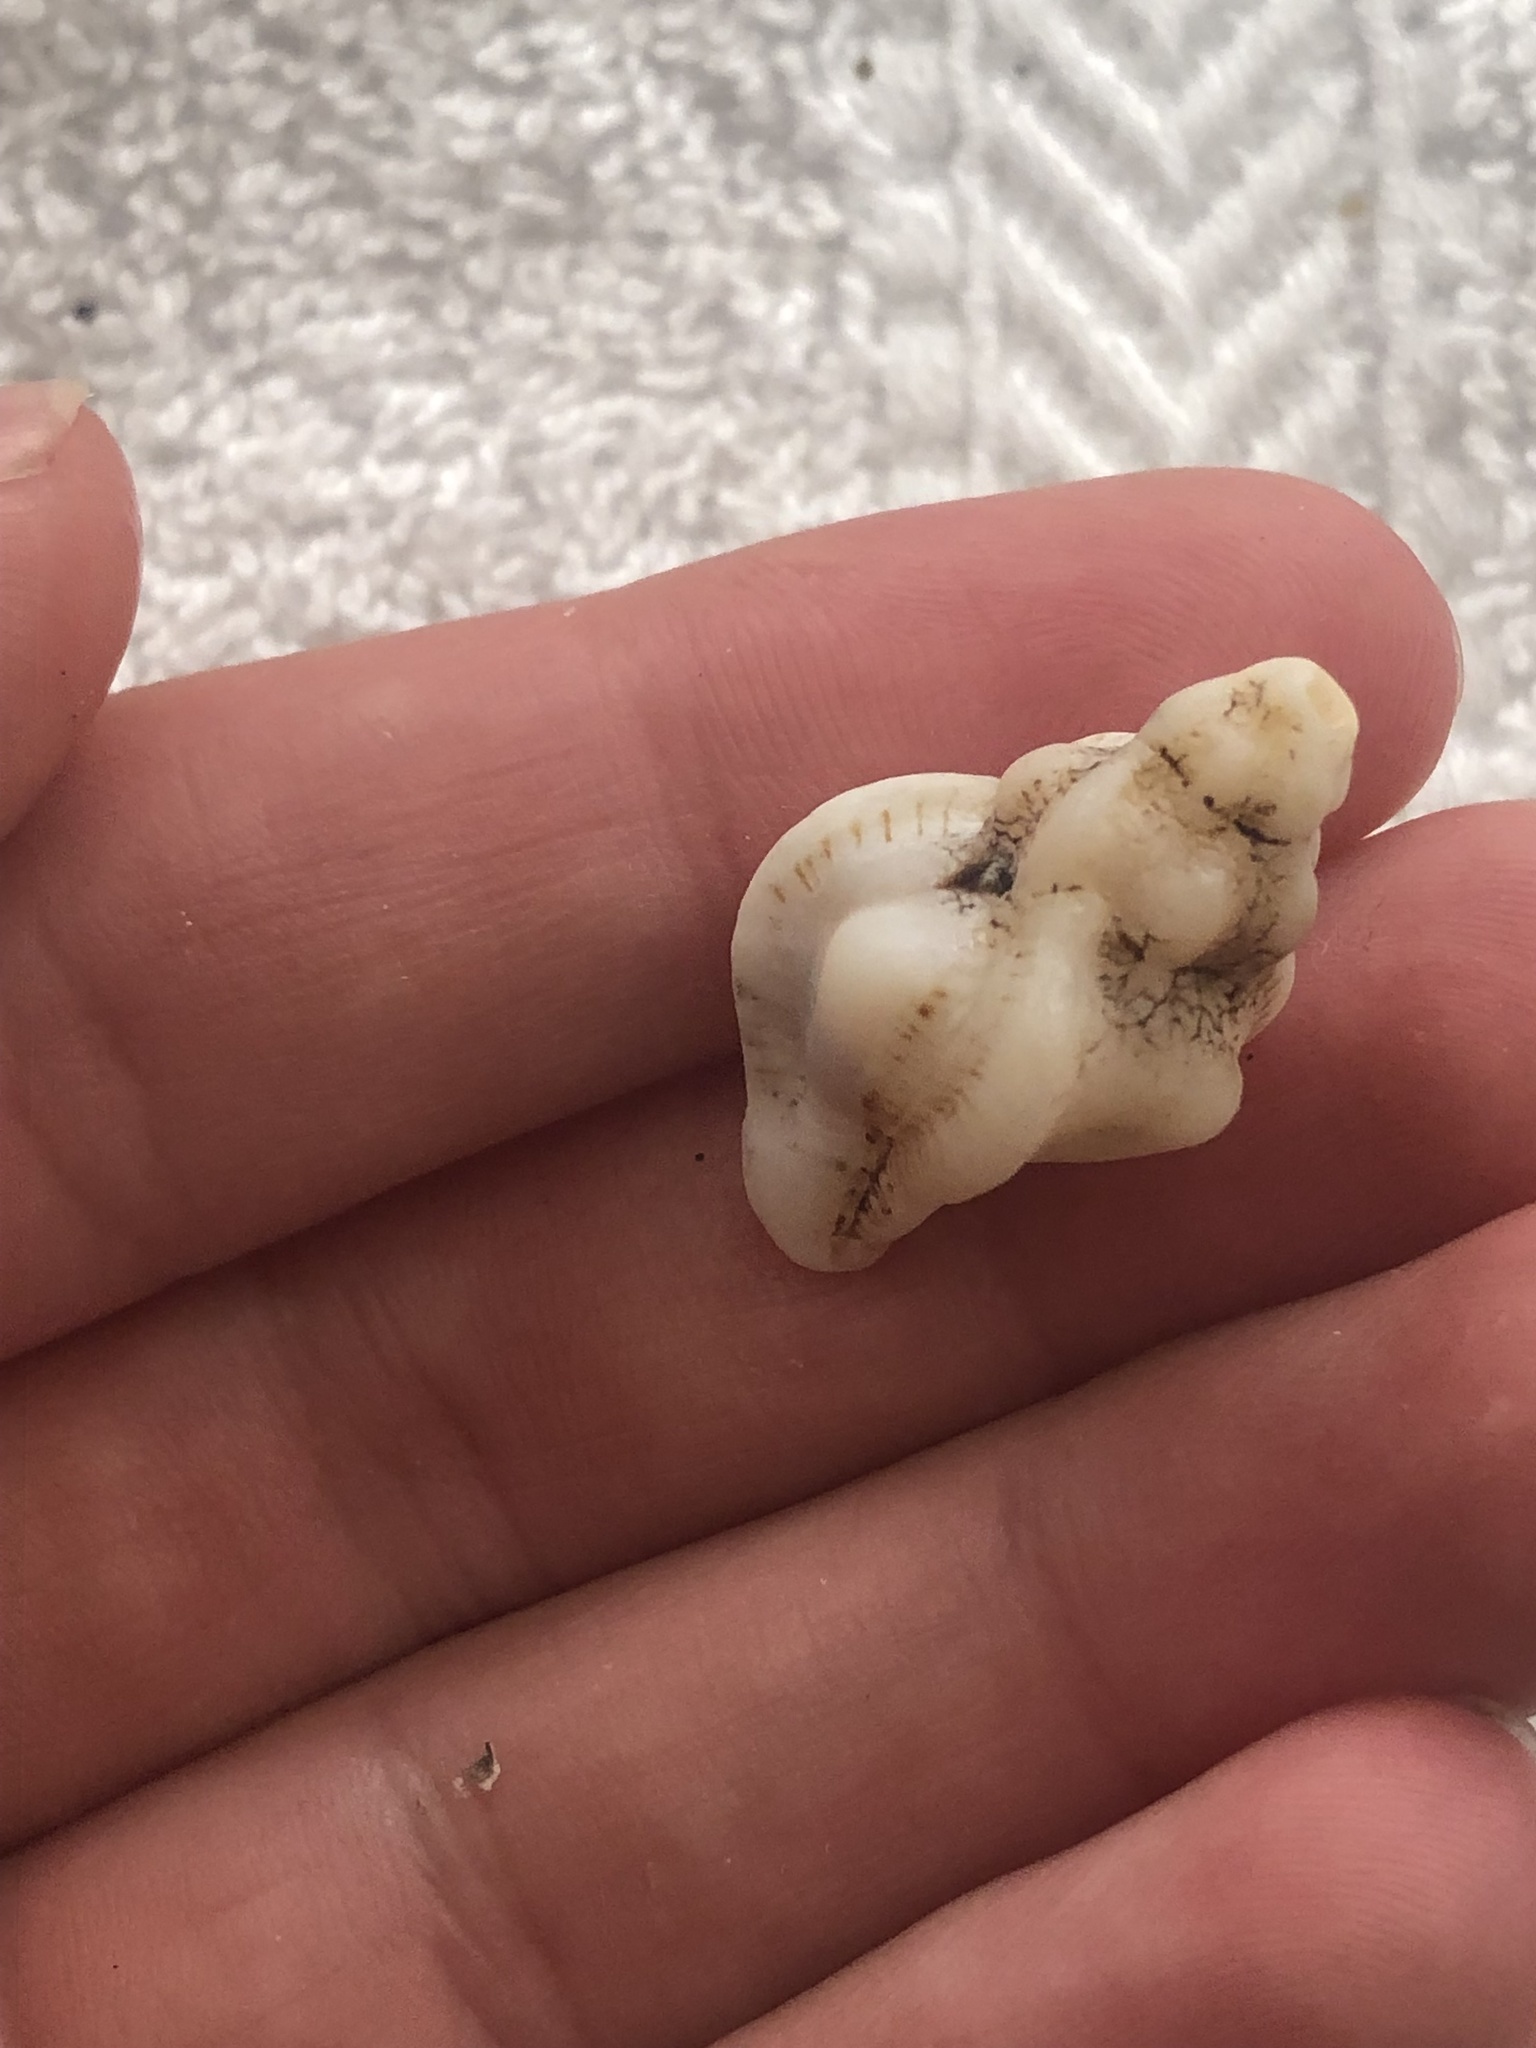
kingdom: Animalia
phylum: Mollusca
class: Gastropoda
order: Neogastropoda
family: Muricidae
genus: Pteropurpura
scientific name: Pteropurpura festiva
